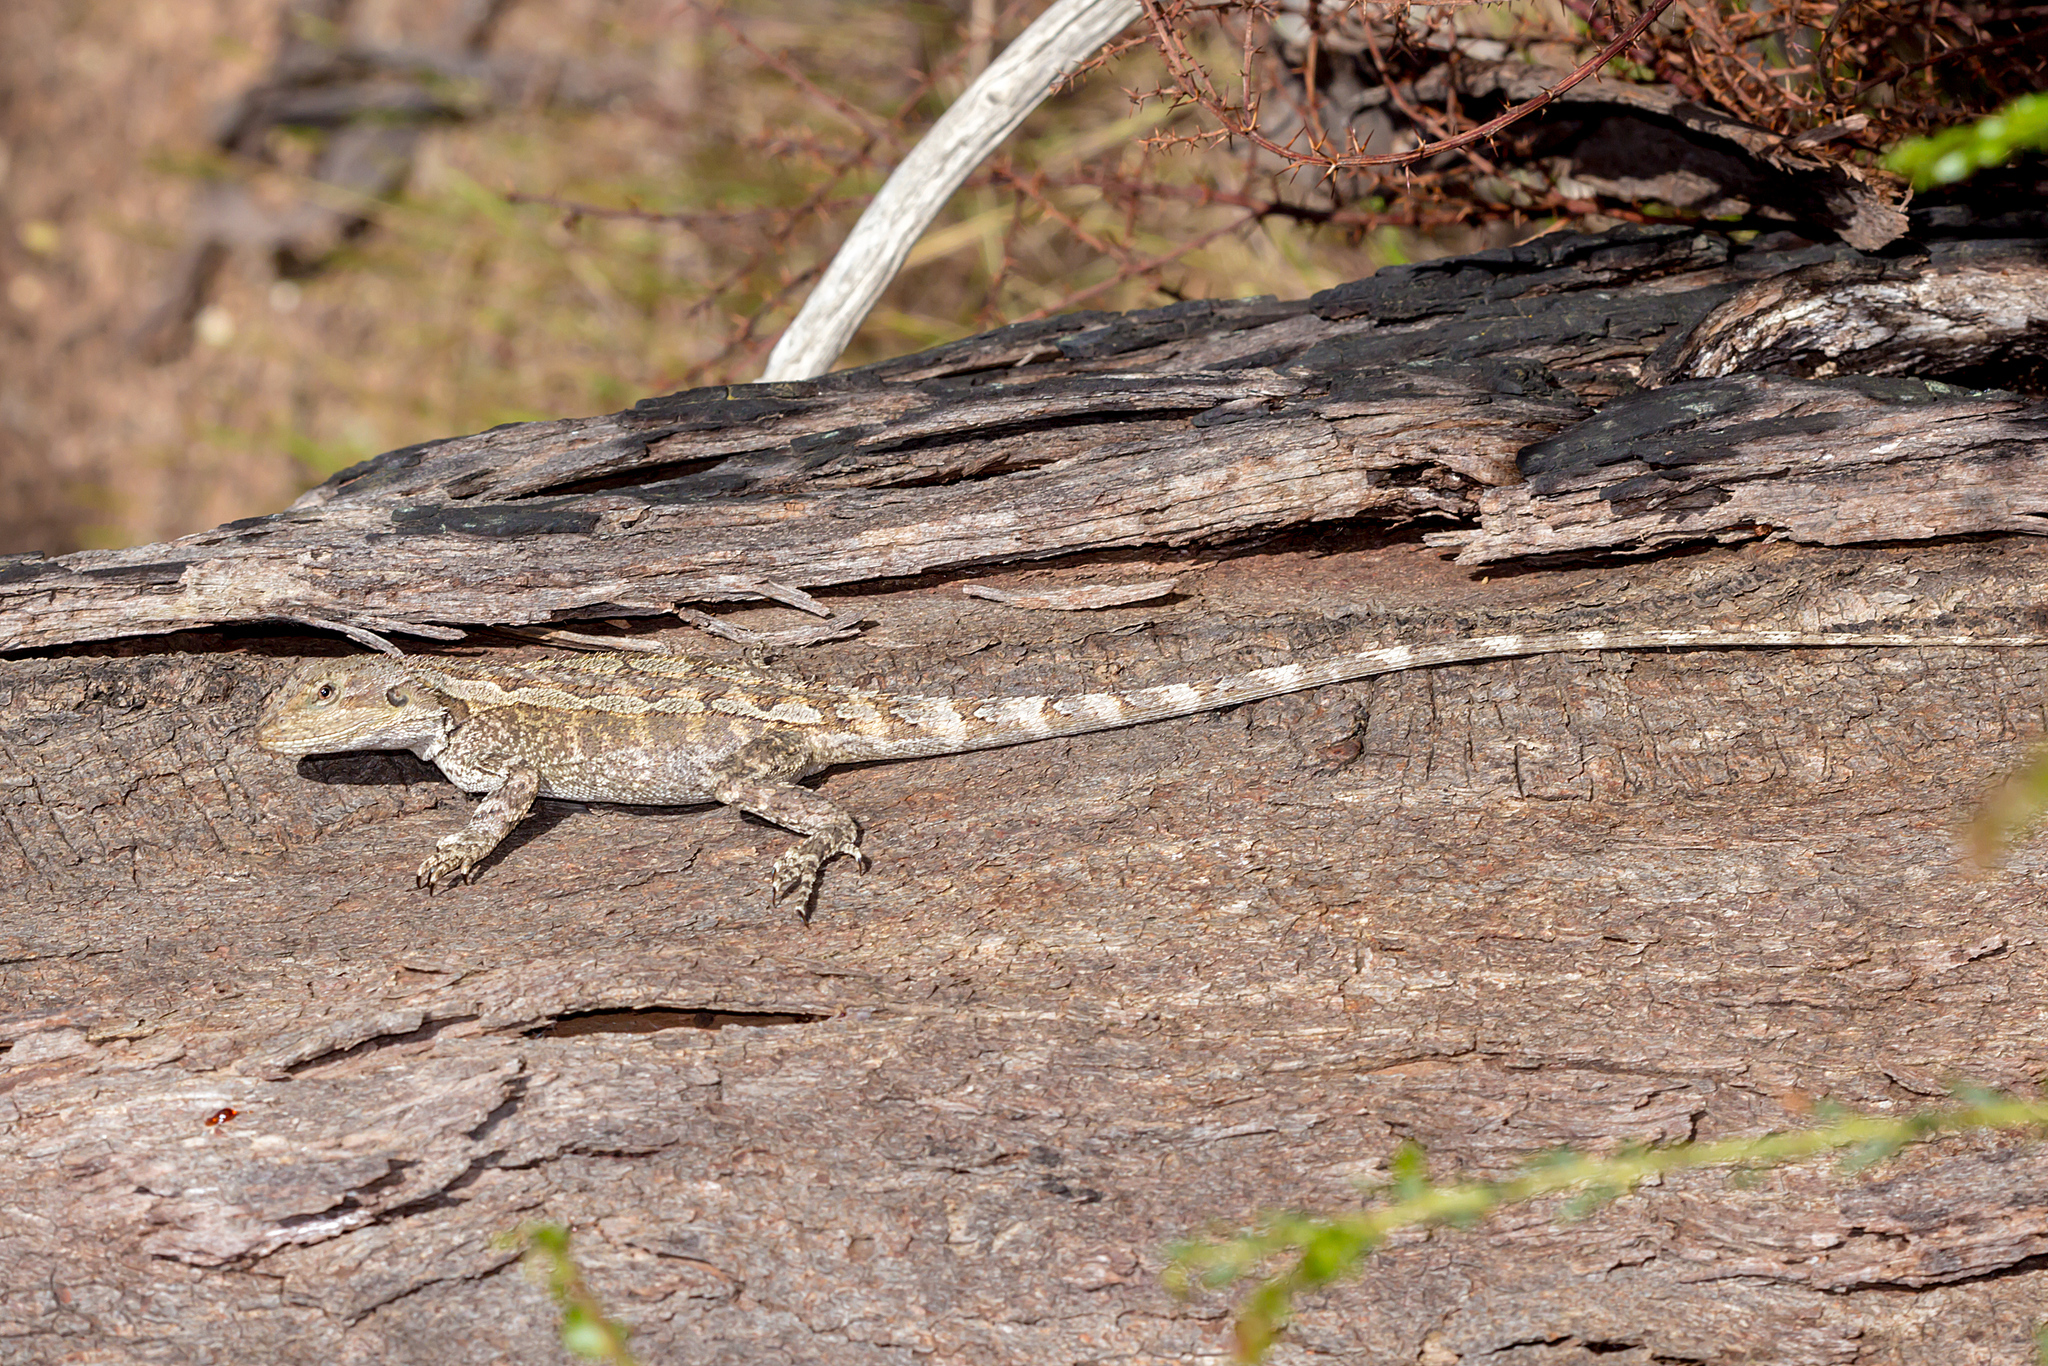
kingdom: Animalia
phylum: Chordata
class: Squamata
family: Agamidae
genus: Amphibolurus
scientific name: Amphibolurus muricatus
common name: Jacky lizard
